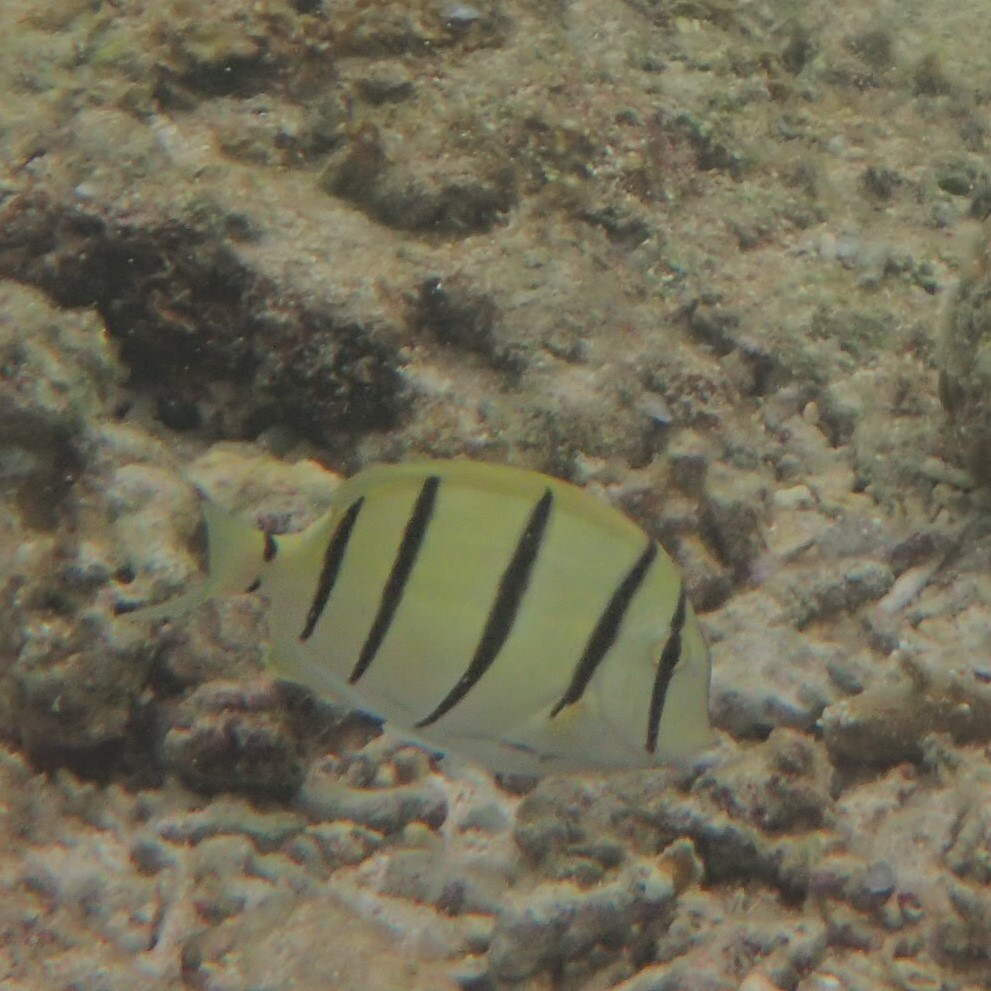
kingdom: Animalia
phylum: Chordata
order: Perciformes
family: Acanthuridae
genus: Acanthurus
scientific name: Acanthurus triostegus
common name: Convict surgeonfish
